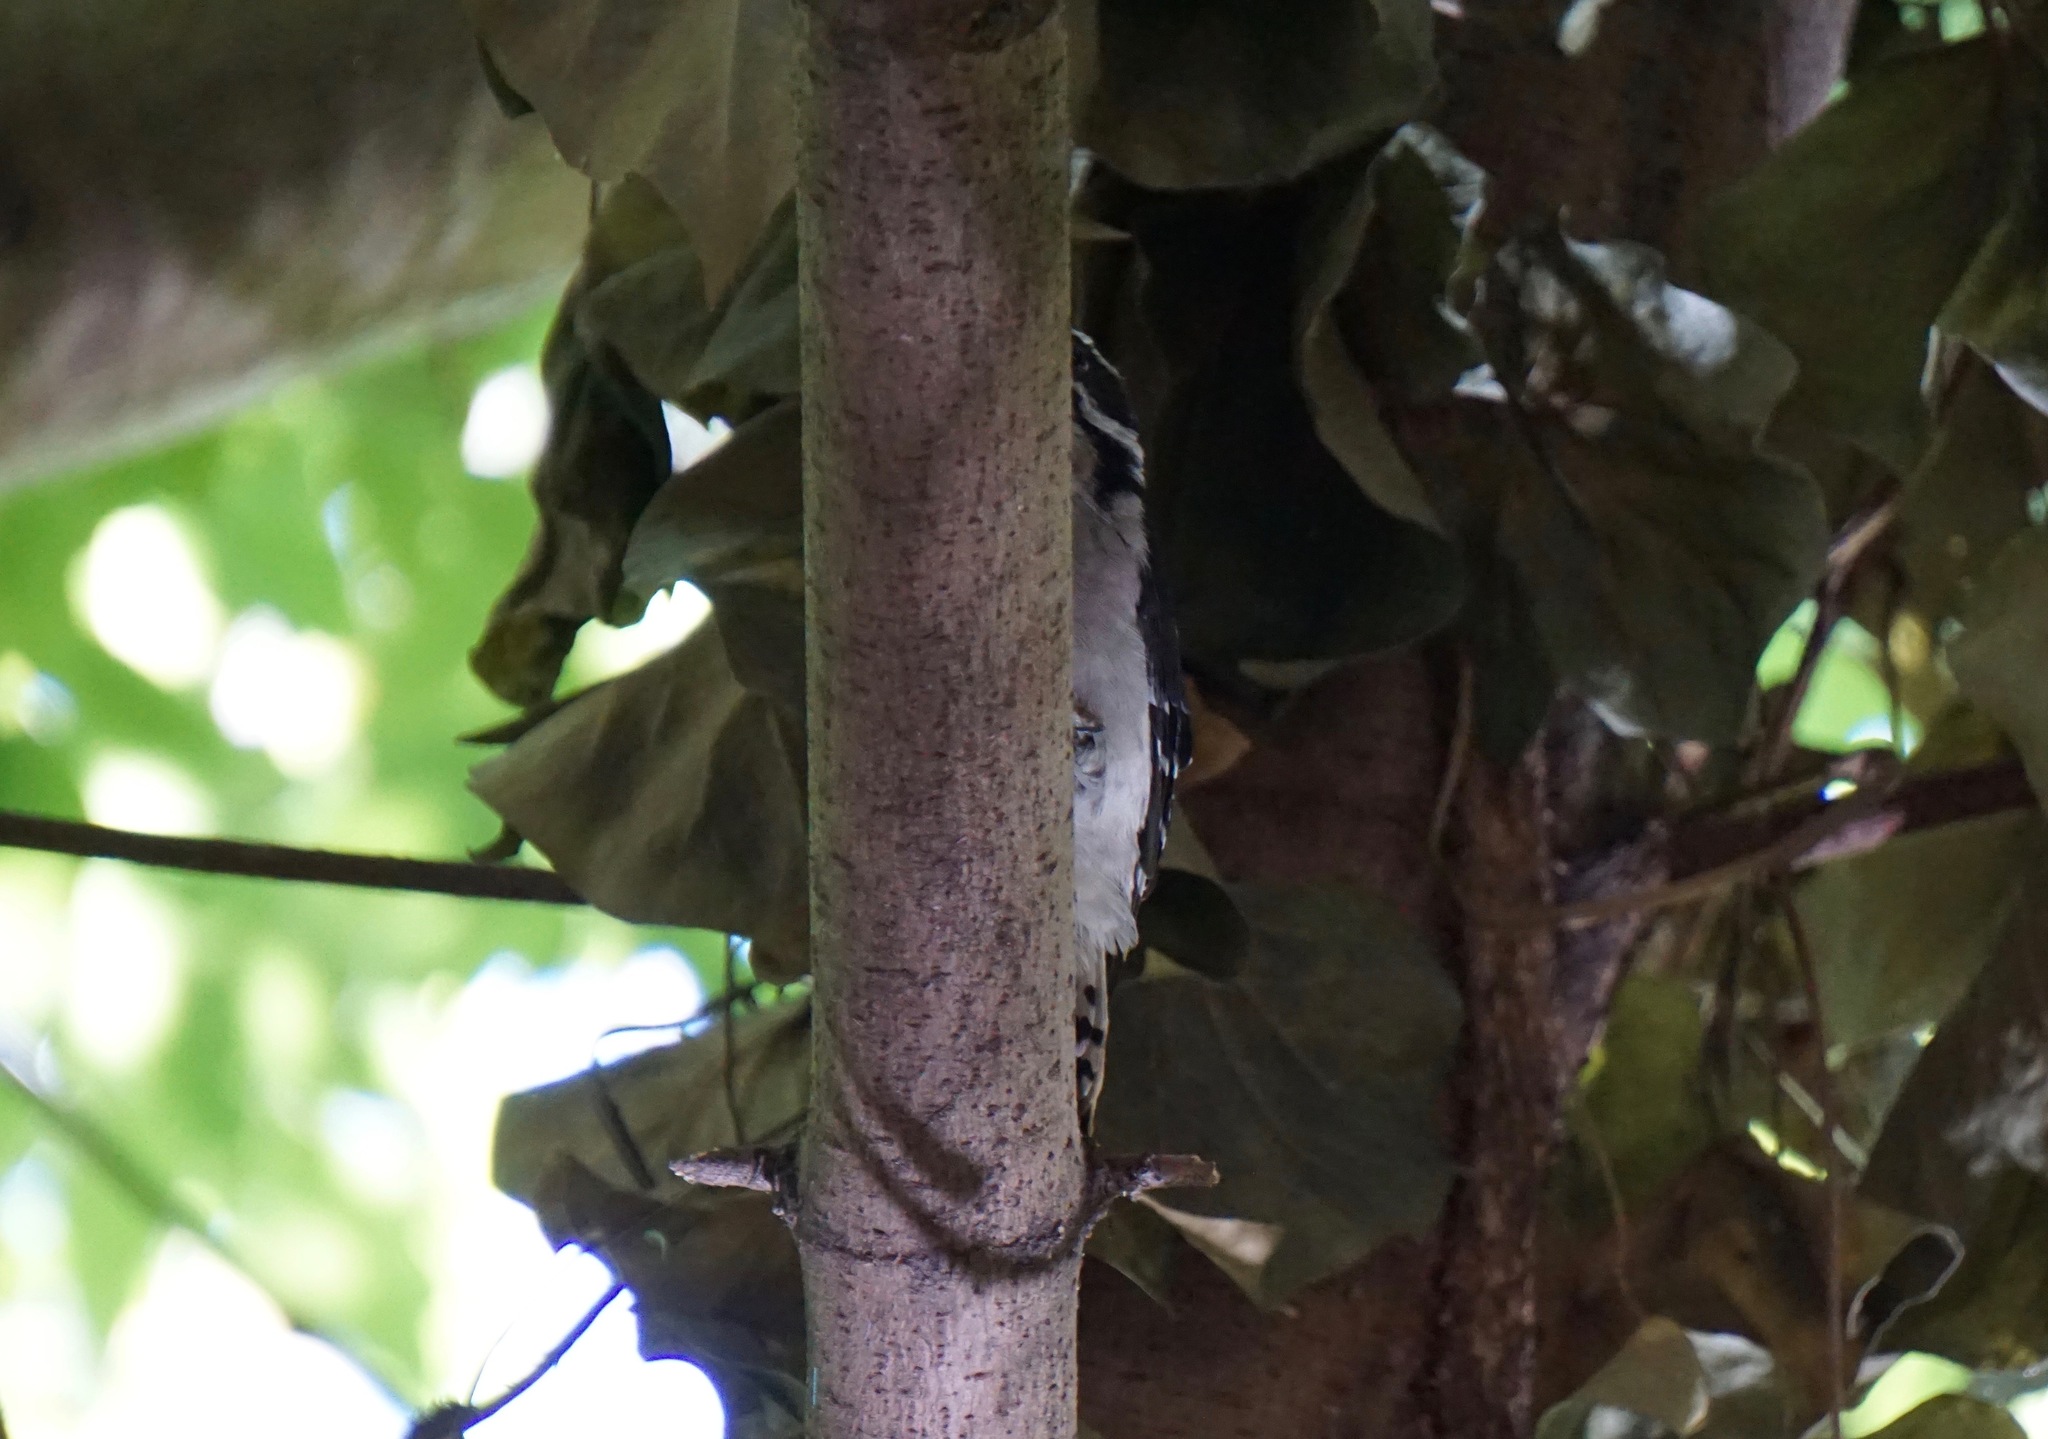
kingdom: Animalia
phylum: Chordata
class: Aves
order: Piciformes
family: Picidae
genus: Dryobates
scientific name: Dryobates pubescens
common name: Downy woodpecker
